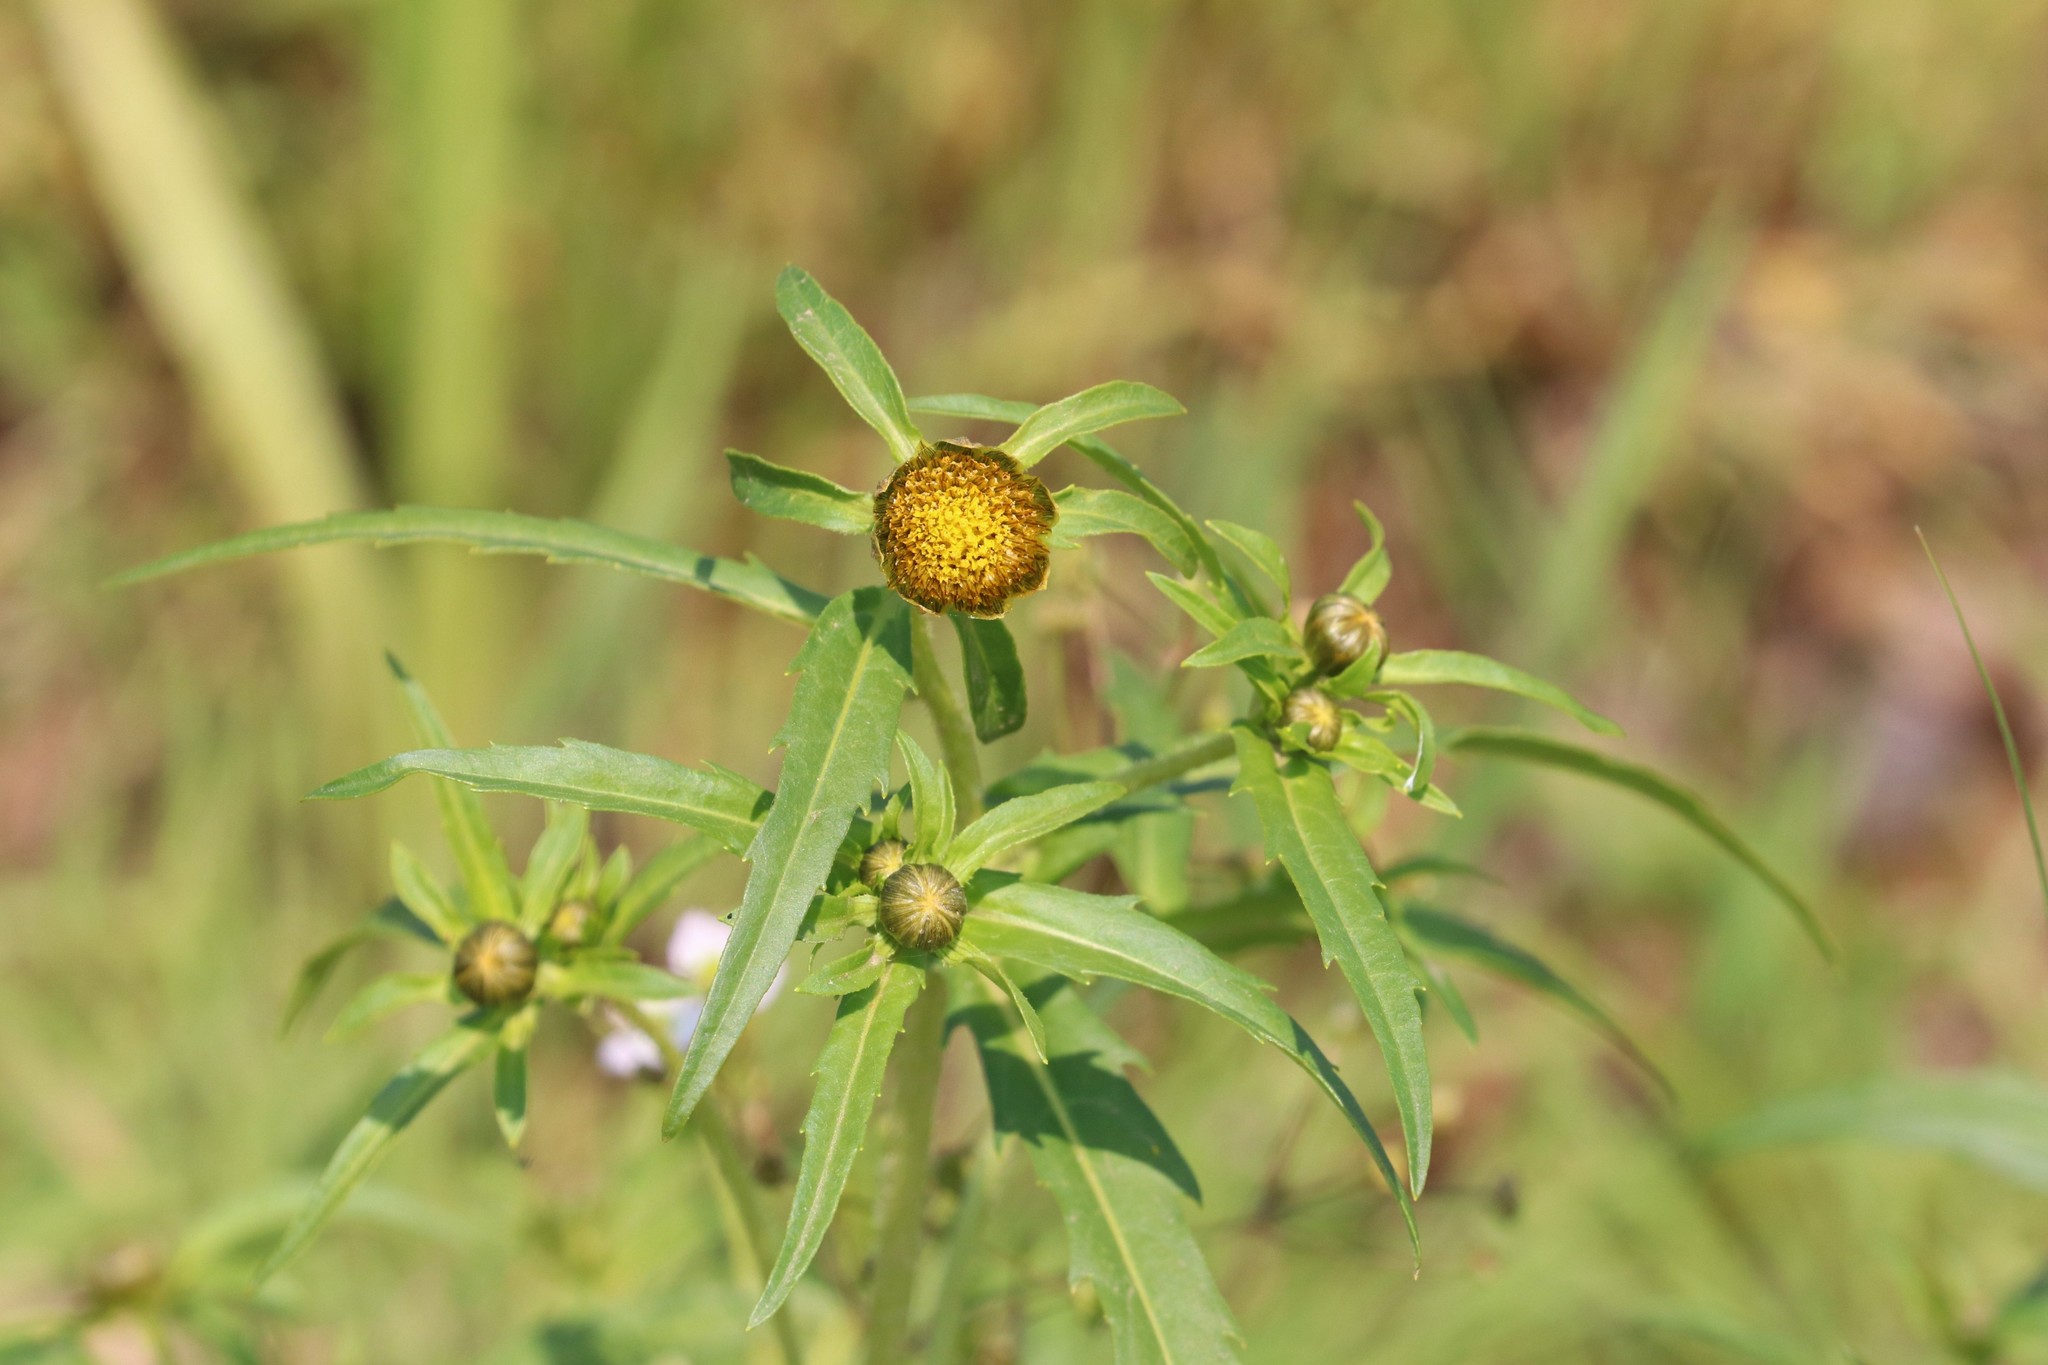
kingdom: Plantae
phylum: Tracheophyta
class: Magnoliopsida
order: Asterales
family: Asteraceae
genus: Bidens
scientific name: Bidens cernua
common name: Nodding bur-marigold
